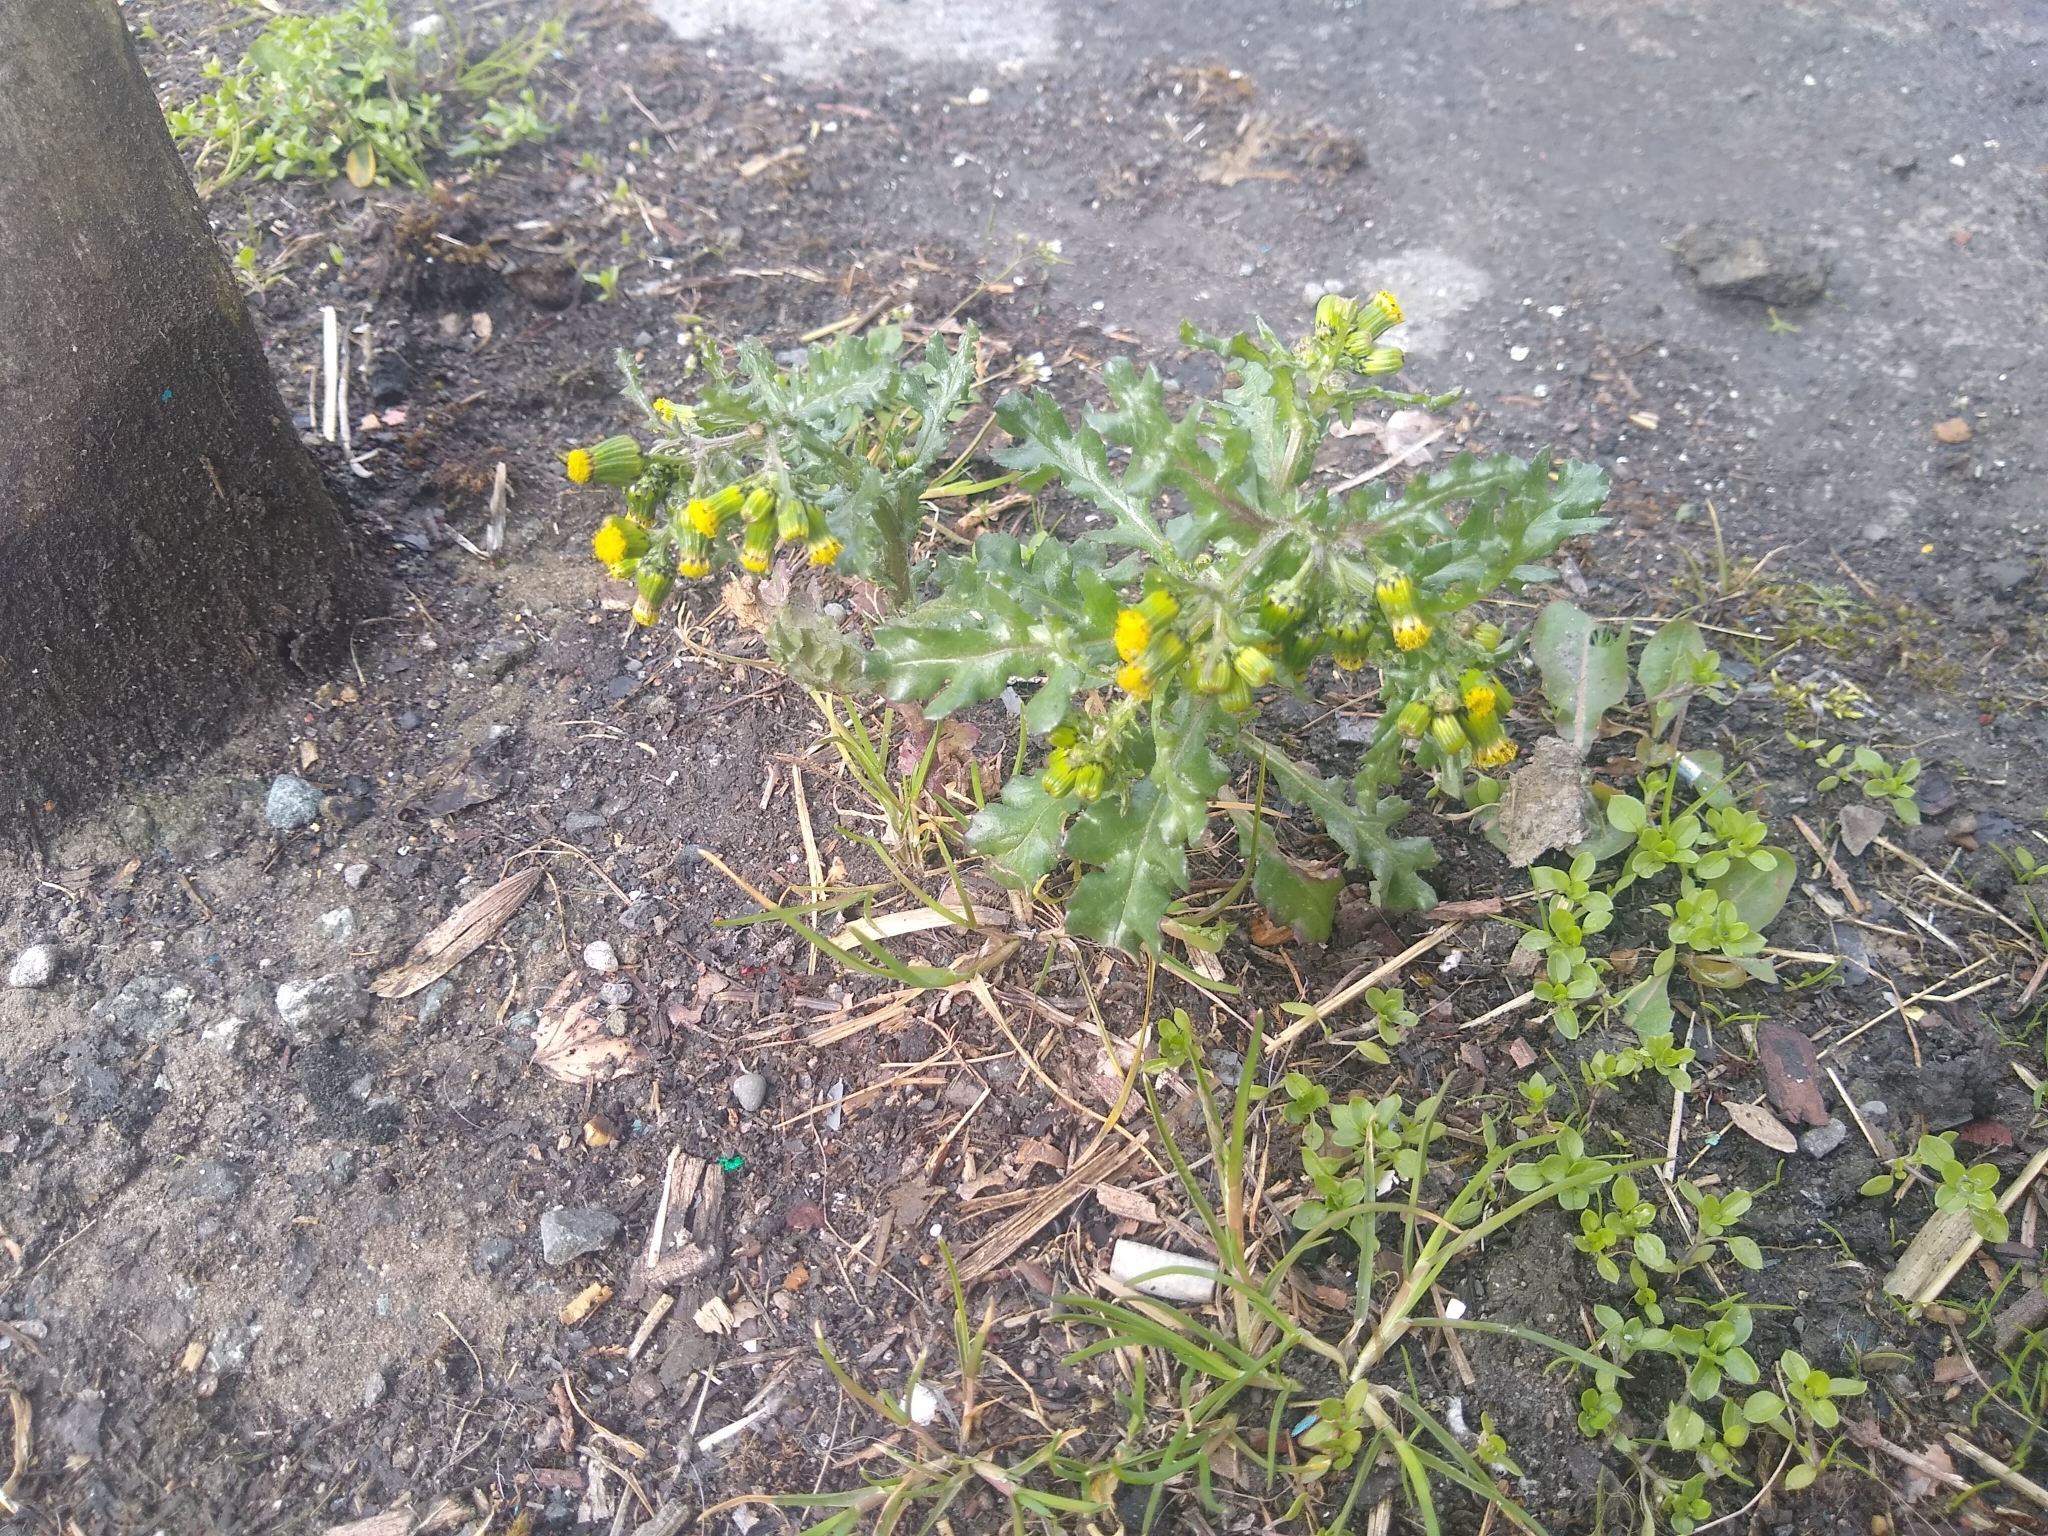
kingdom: Plantae
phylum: Tracheophyta
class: Magnoliopsida
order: Asterales
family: Asteraceae
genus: Senecio
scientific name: Senecio vulgaris
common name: Old-man-in-the-spring
